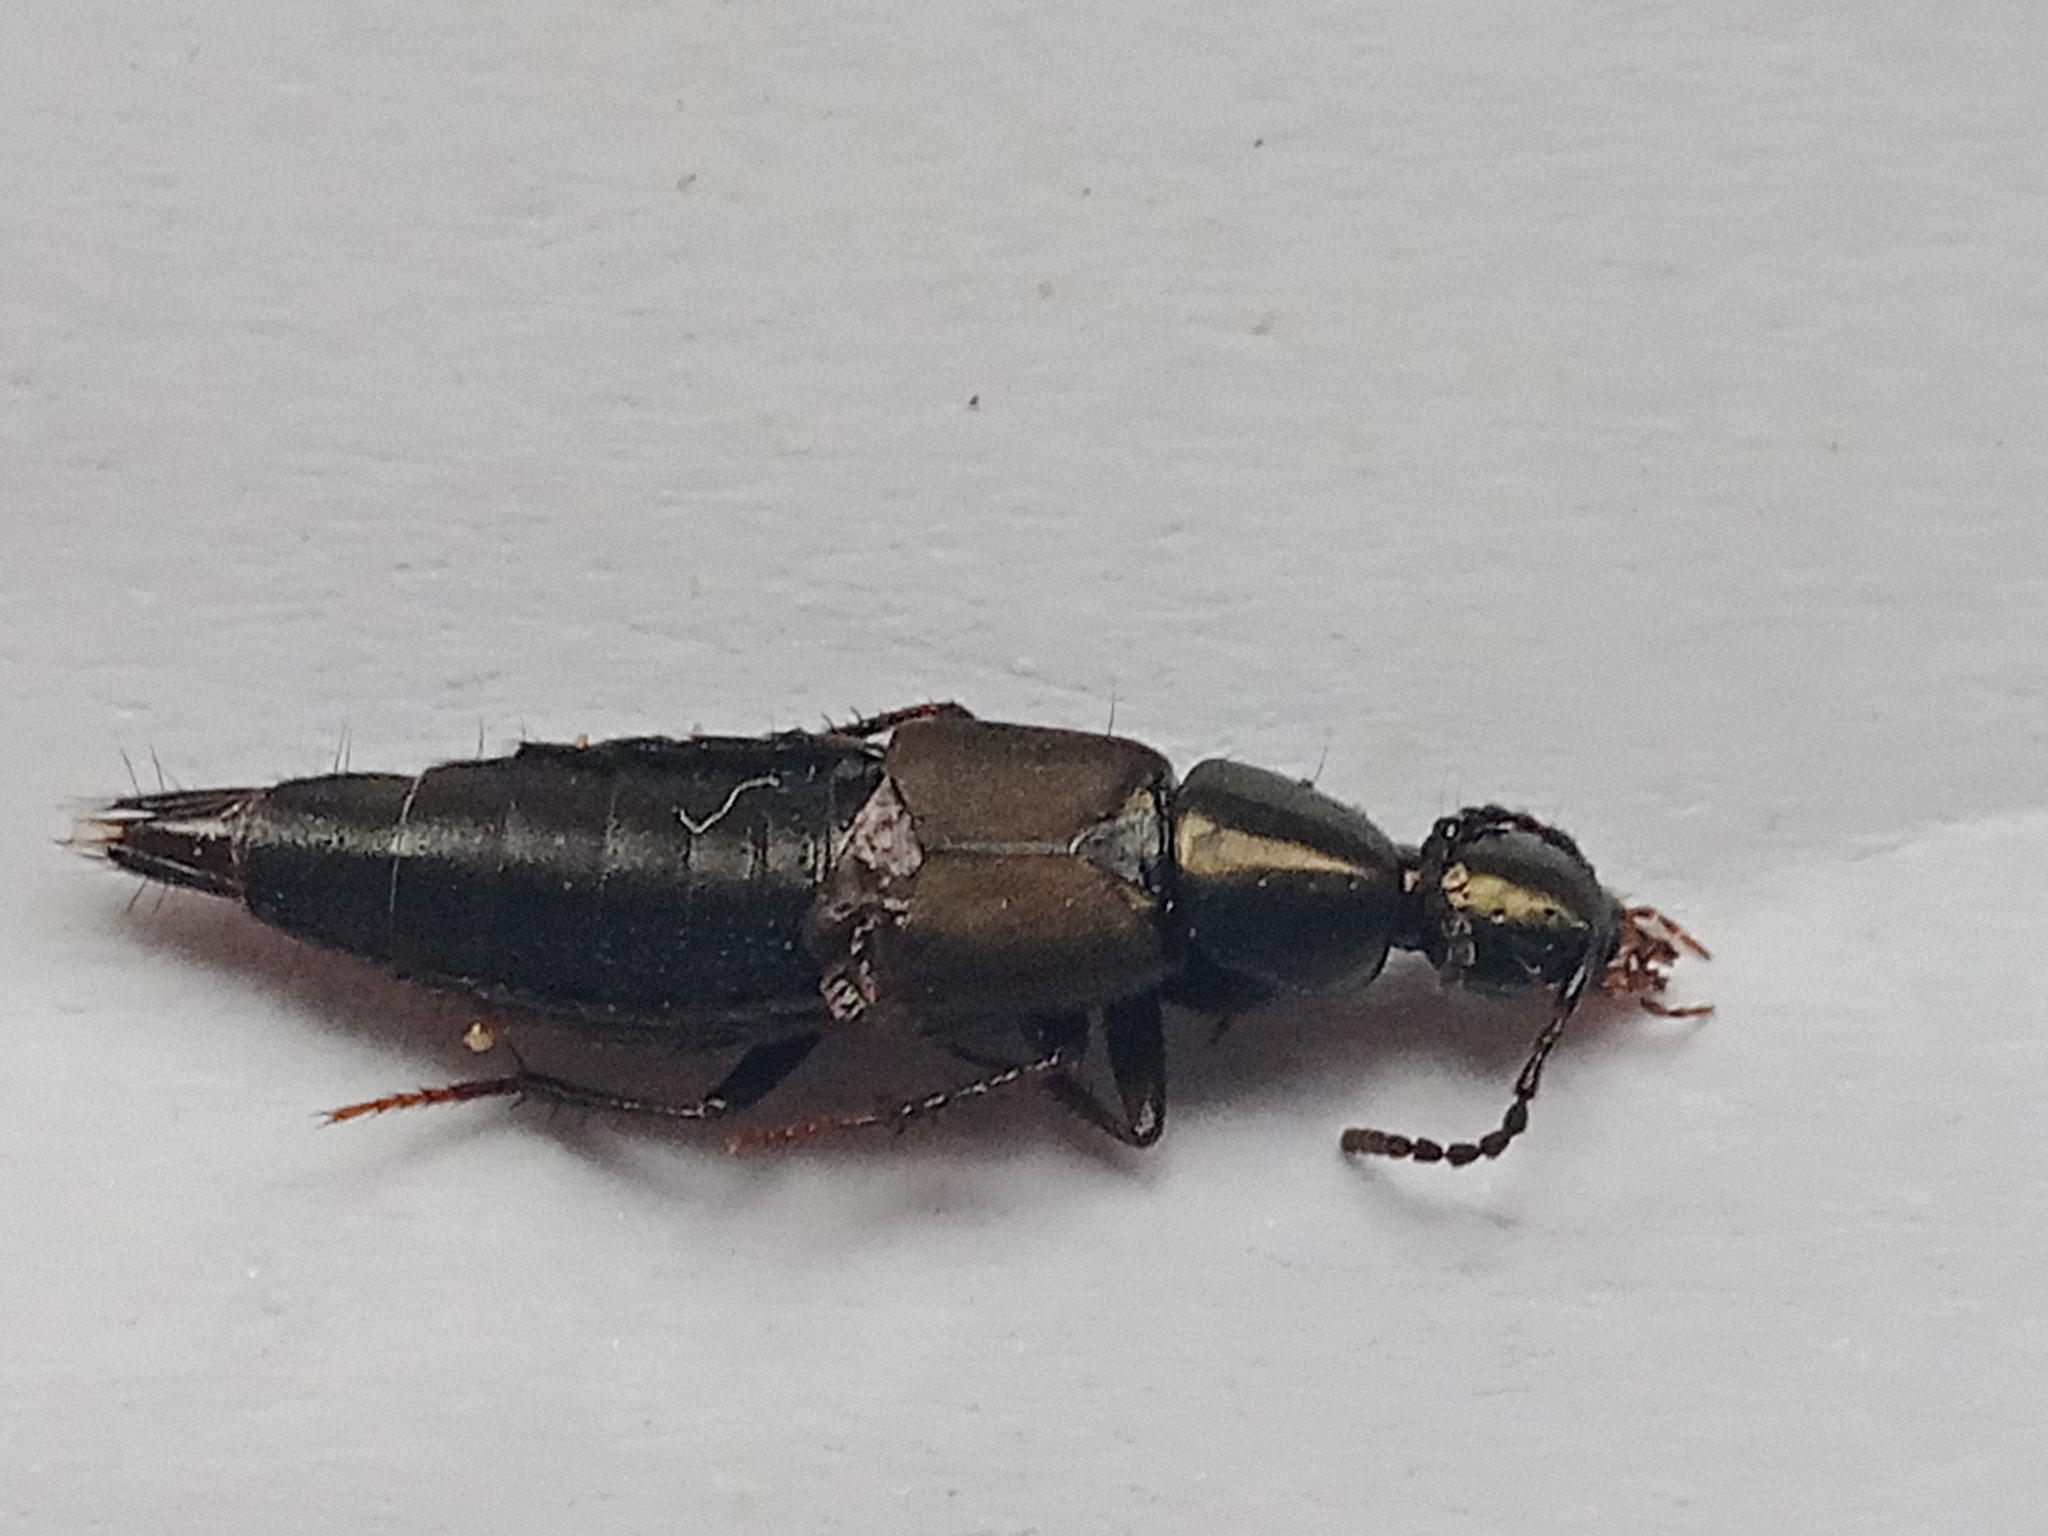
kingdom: Animalia
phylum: Arthropoda
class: Insecta
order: Coleoptera
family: Staphylinidae
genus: Philonthus
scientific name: Philonthus decorus
